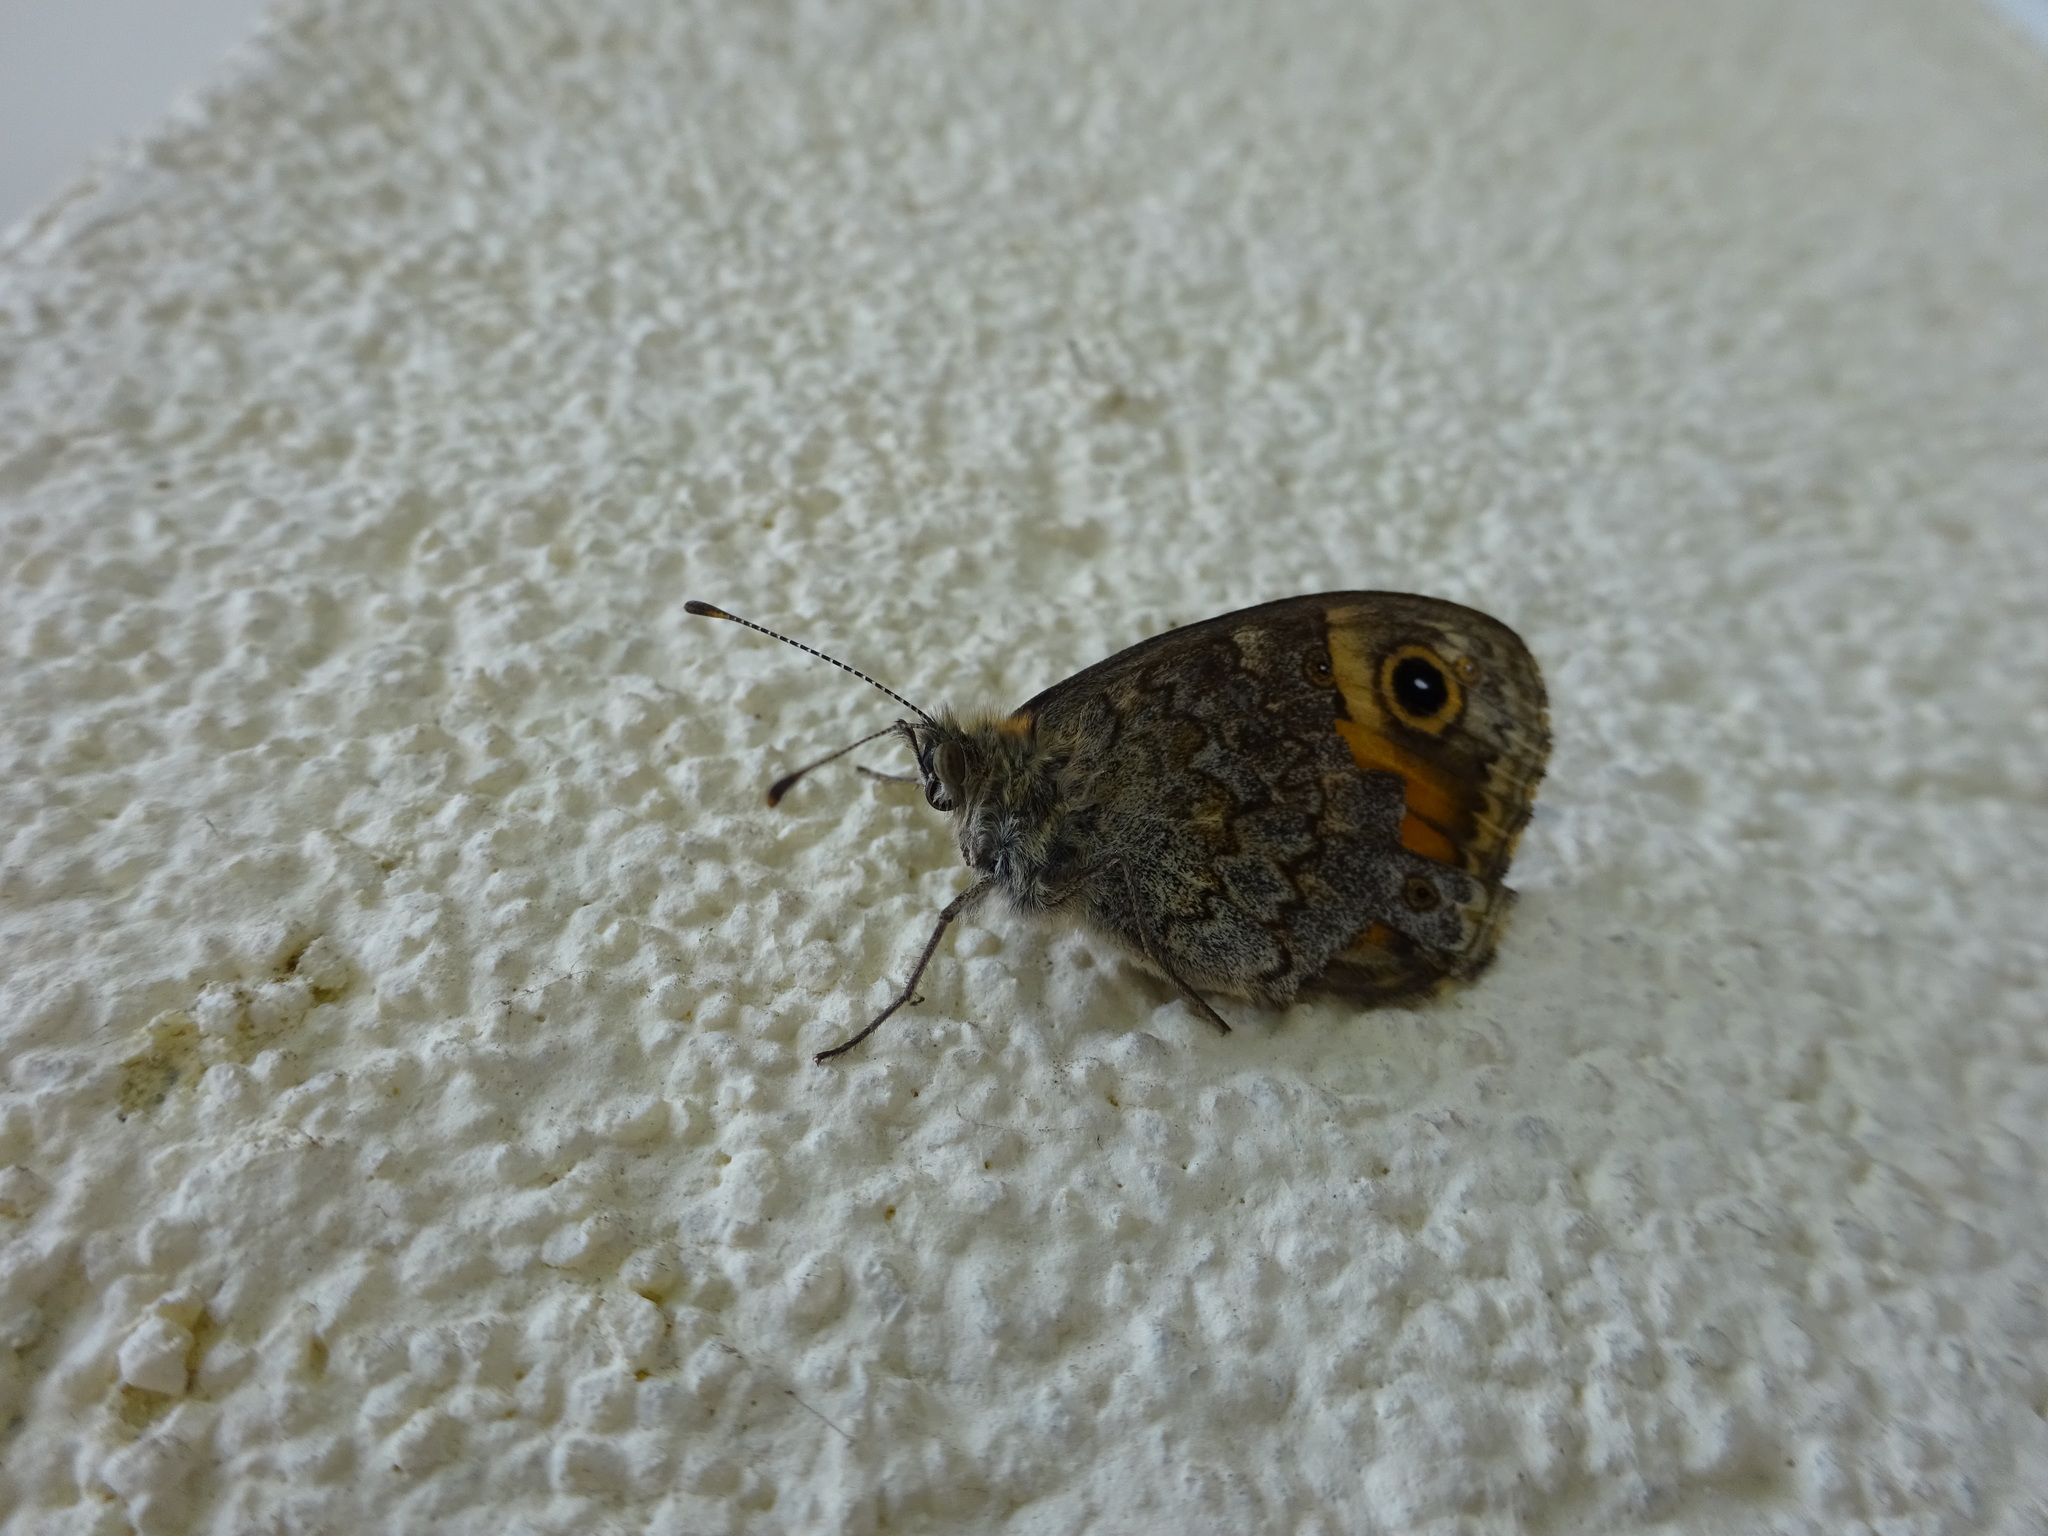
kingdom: Animalia
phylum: Arthropoda
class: Insecta
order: Lepidoptera
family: Nymphalidae
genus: Pararge
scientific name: Pararge Lasiommata megera
